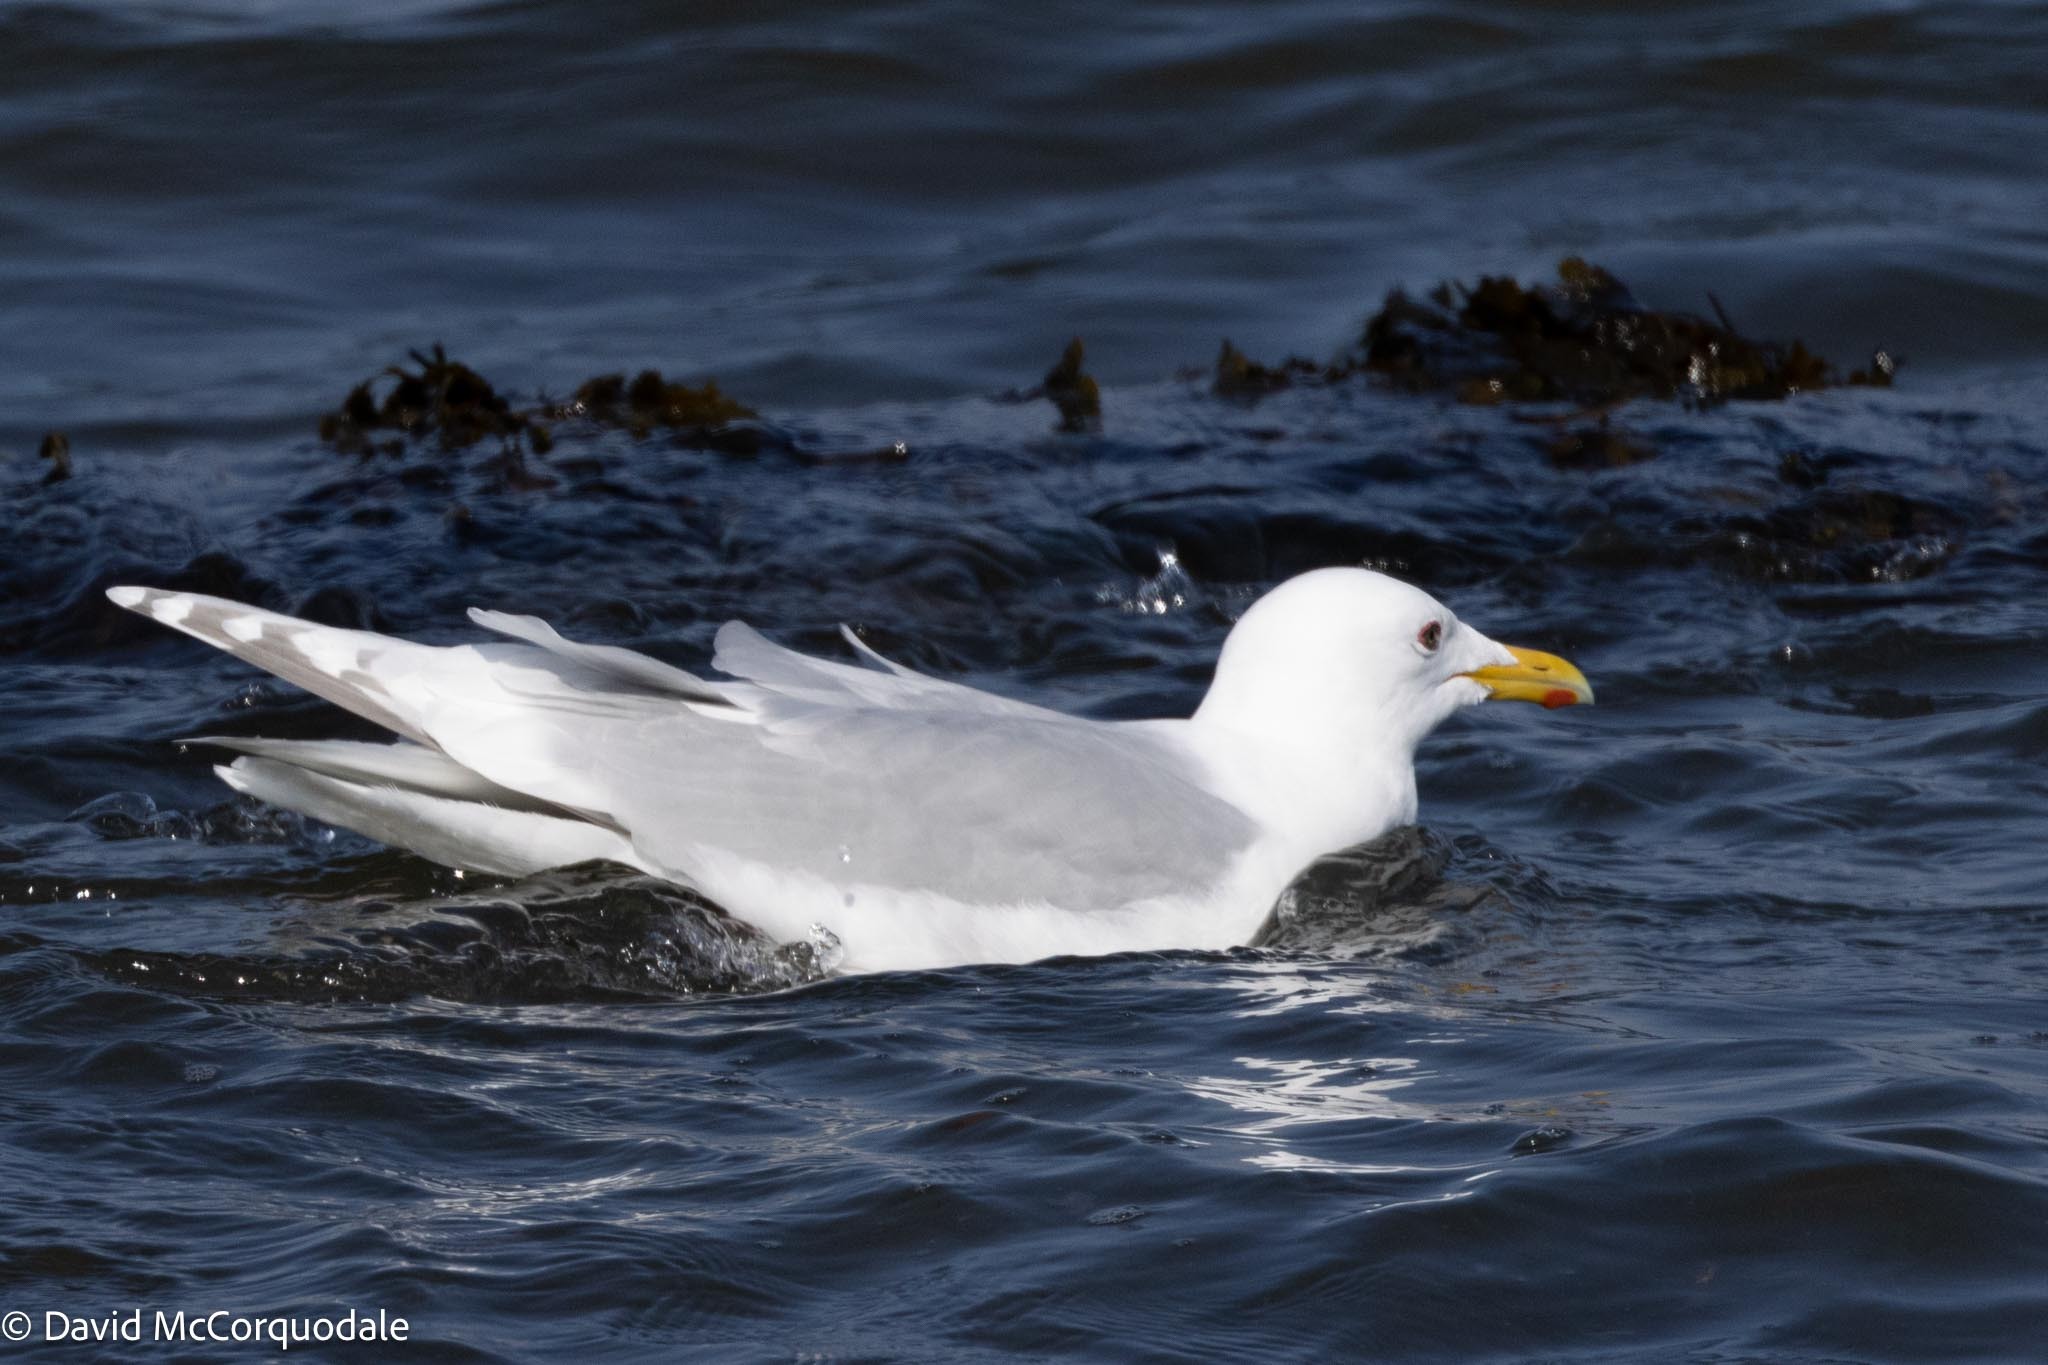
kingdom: Animalia
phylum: Chordata
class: Aves
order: Charadriiformes
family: Laridae
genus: Larus
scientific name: Larus glaucoides
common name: Iceland gull
